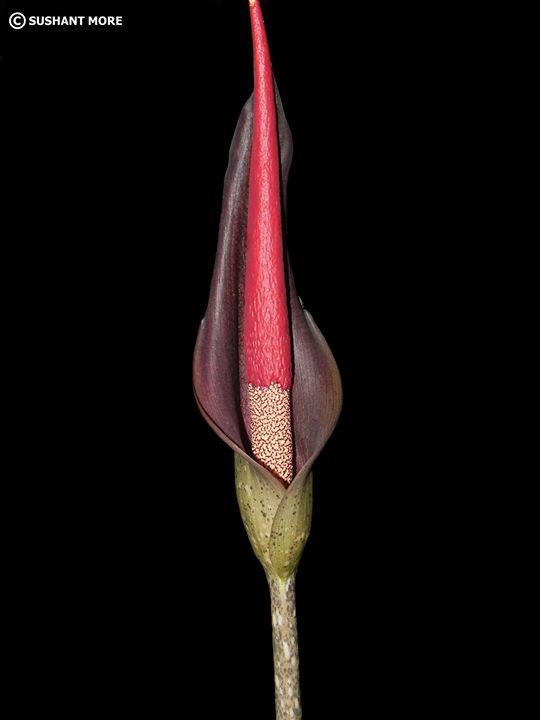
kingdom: Plantae
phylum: Tracheophyta
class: Liliopsida
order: Alismatales
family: Araceae
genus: Amorphophallus
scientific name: Amorphophallus commutatus
